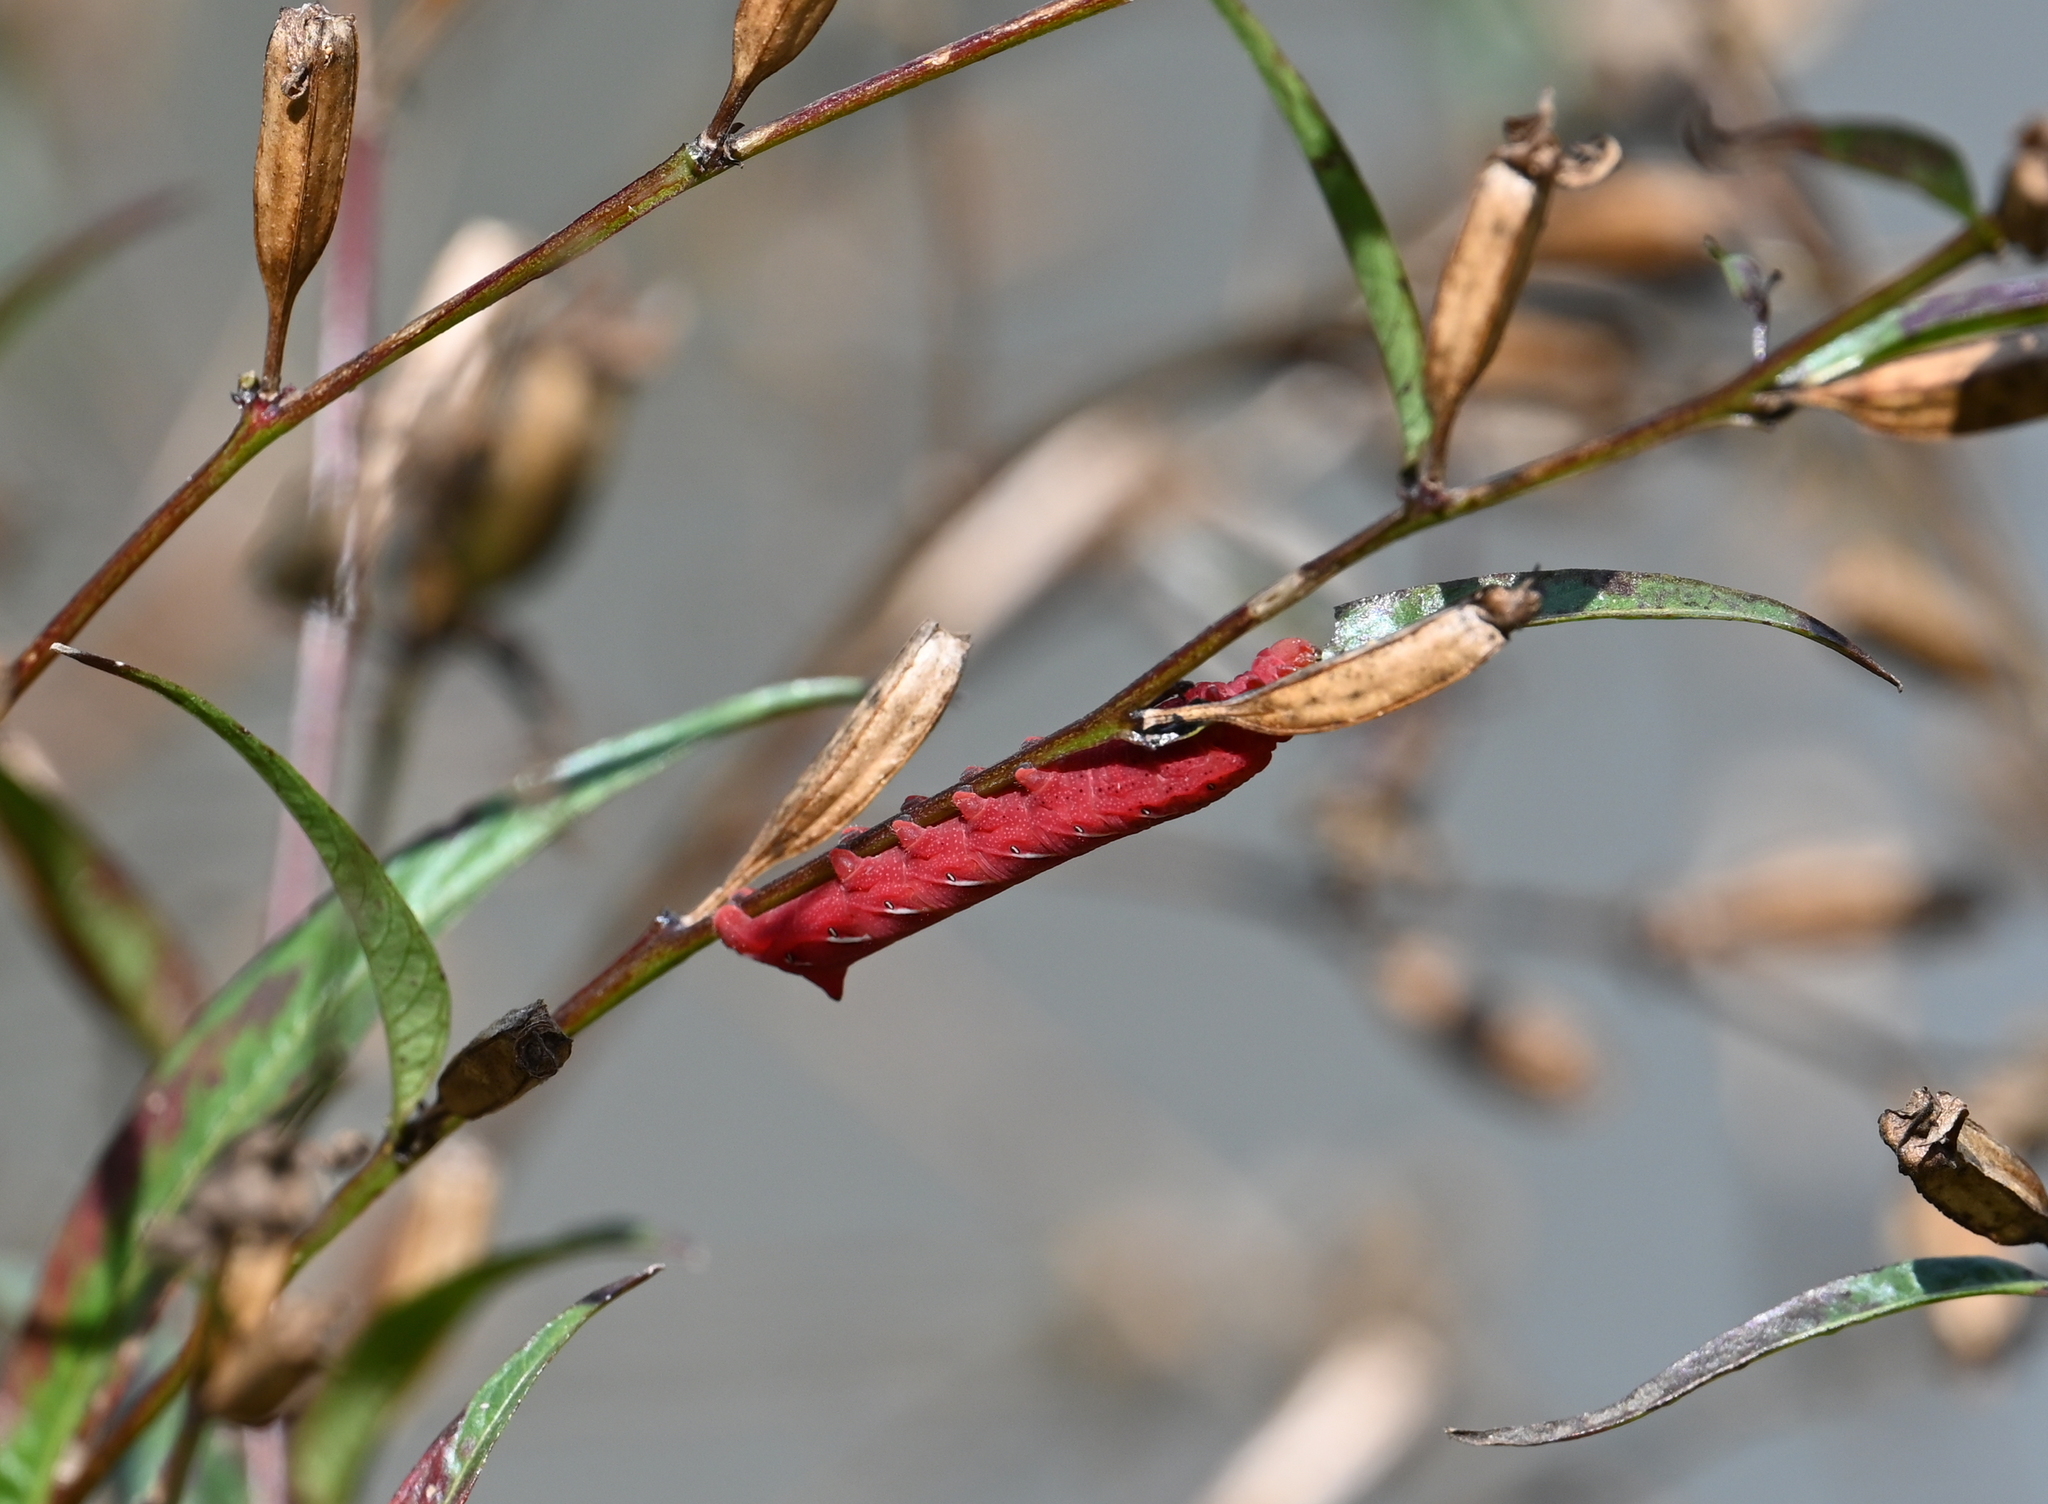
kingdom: Animalia
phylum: Arthropoda
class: Insecta
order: Lepidoptera
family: Sphingidae
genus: Eumorpha
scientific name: Eumorpha fasciatus
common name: Banded sphinx
